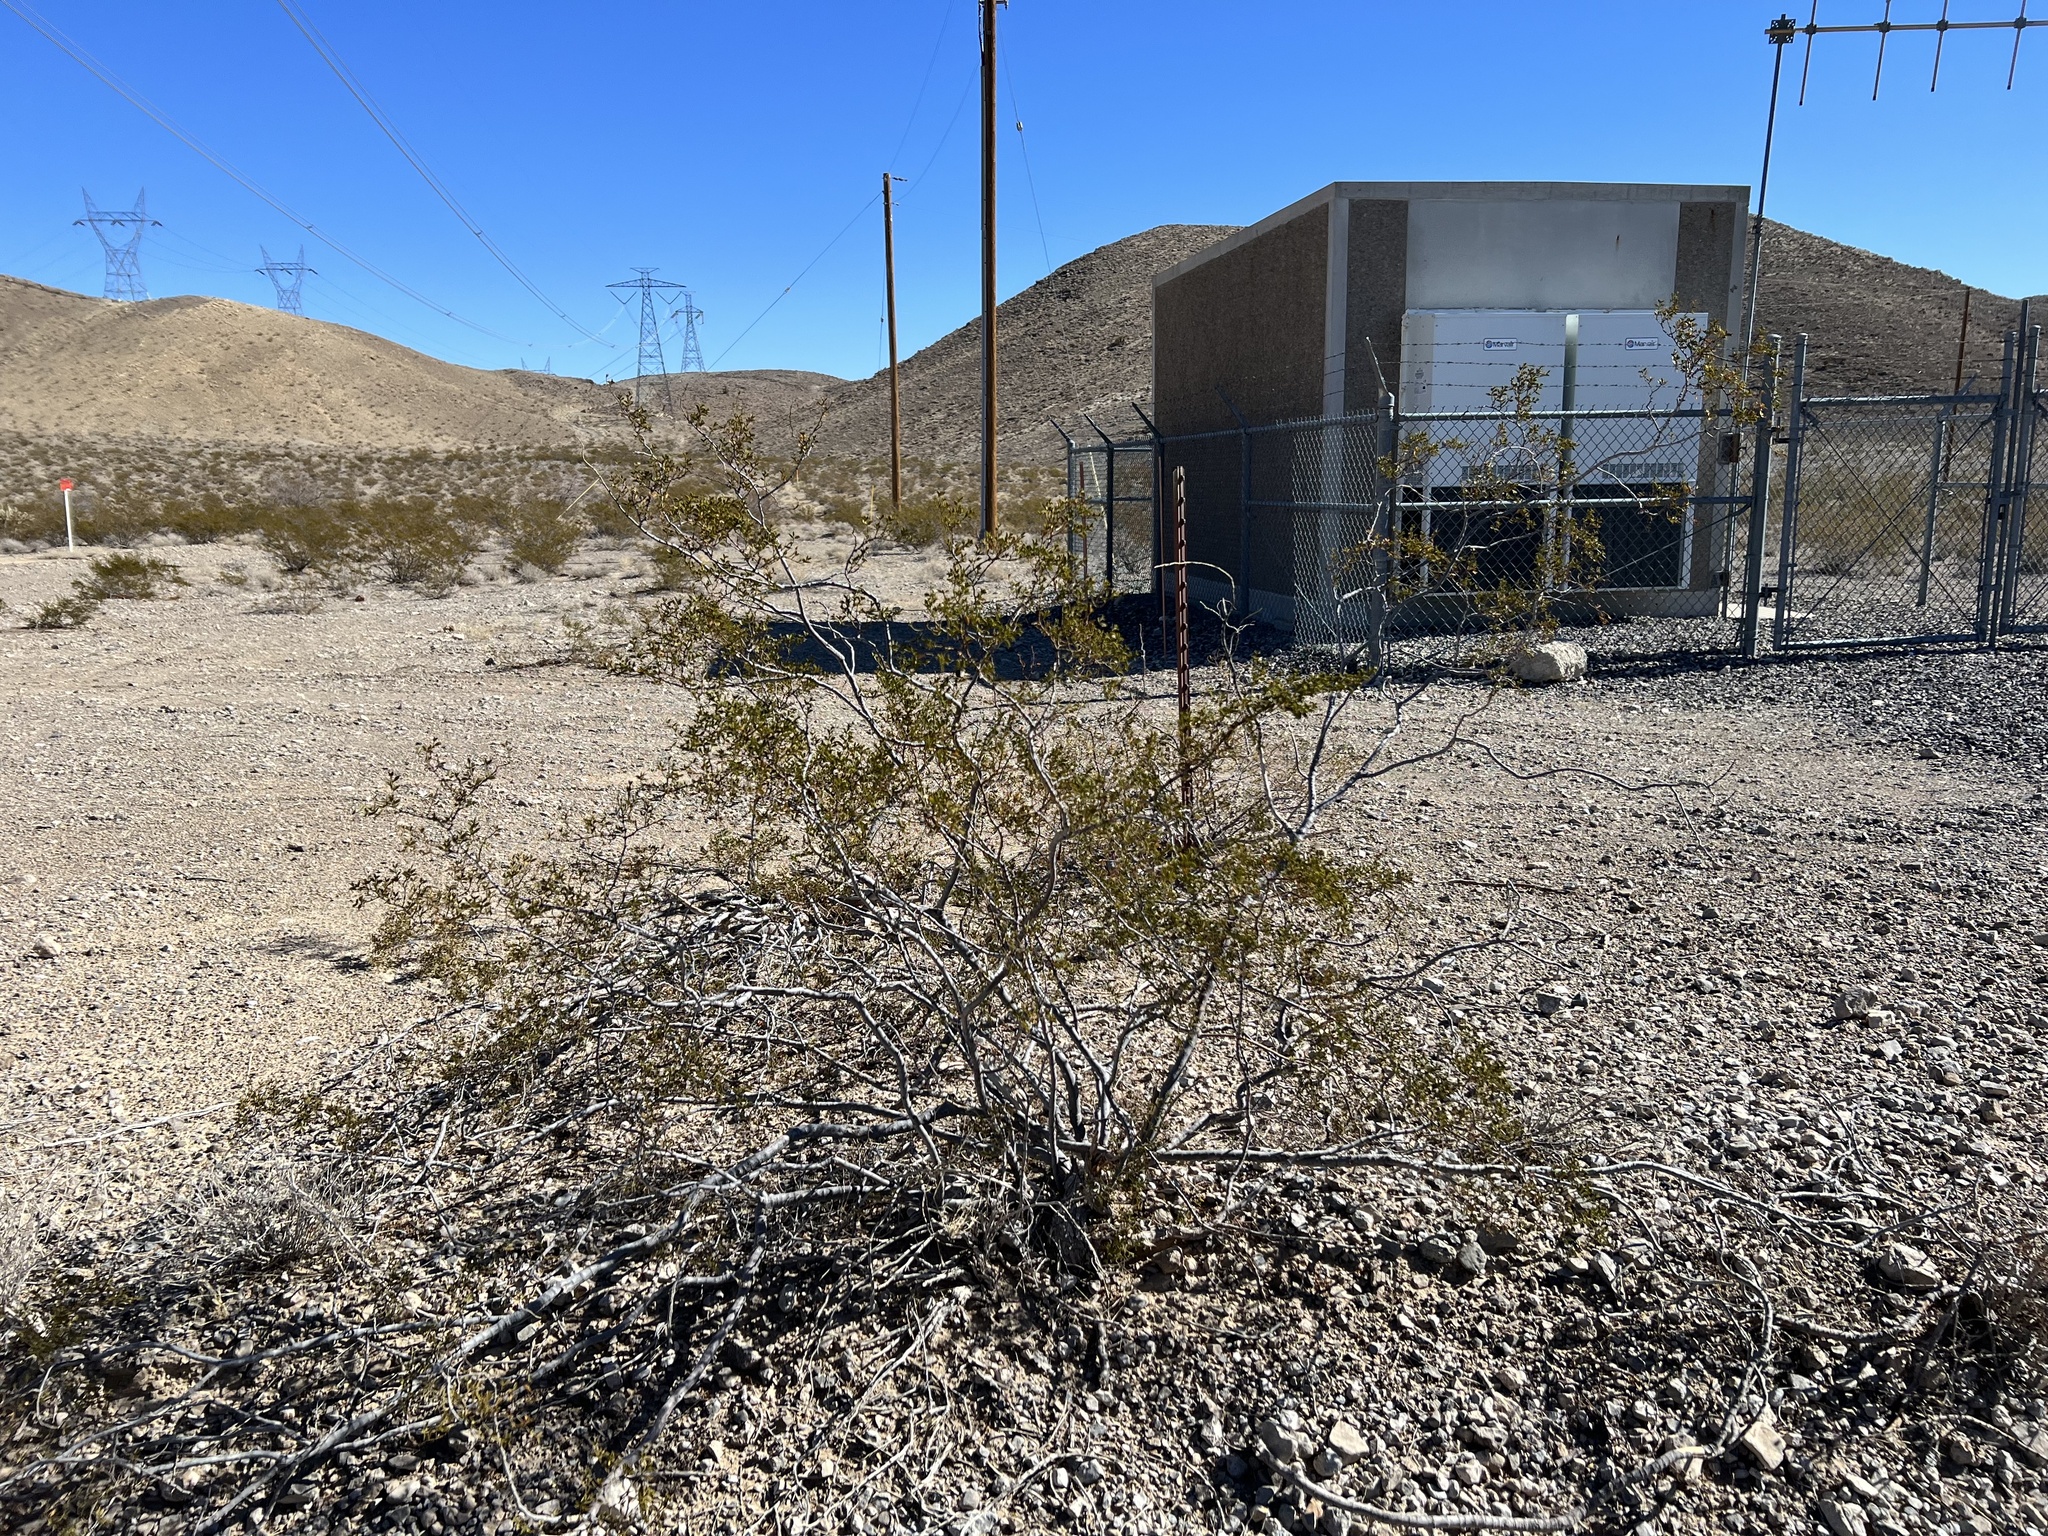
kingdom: Plantae
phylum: Tracheophyta
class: Magnoliopsida
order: Zygophyllales
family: Zygophyllaceae
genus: Larrea
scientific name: Larrea tridentata
